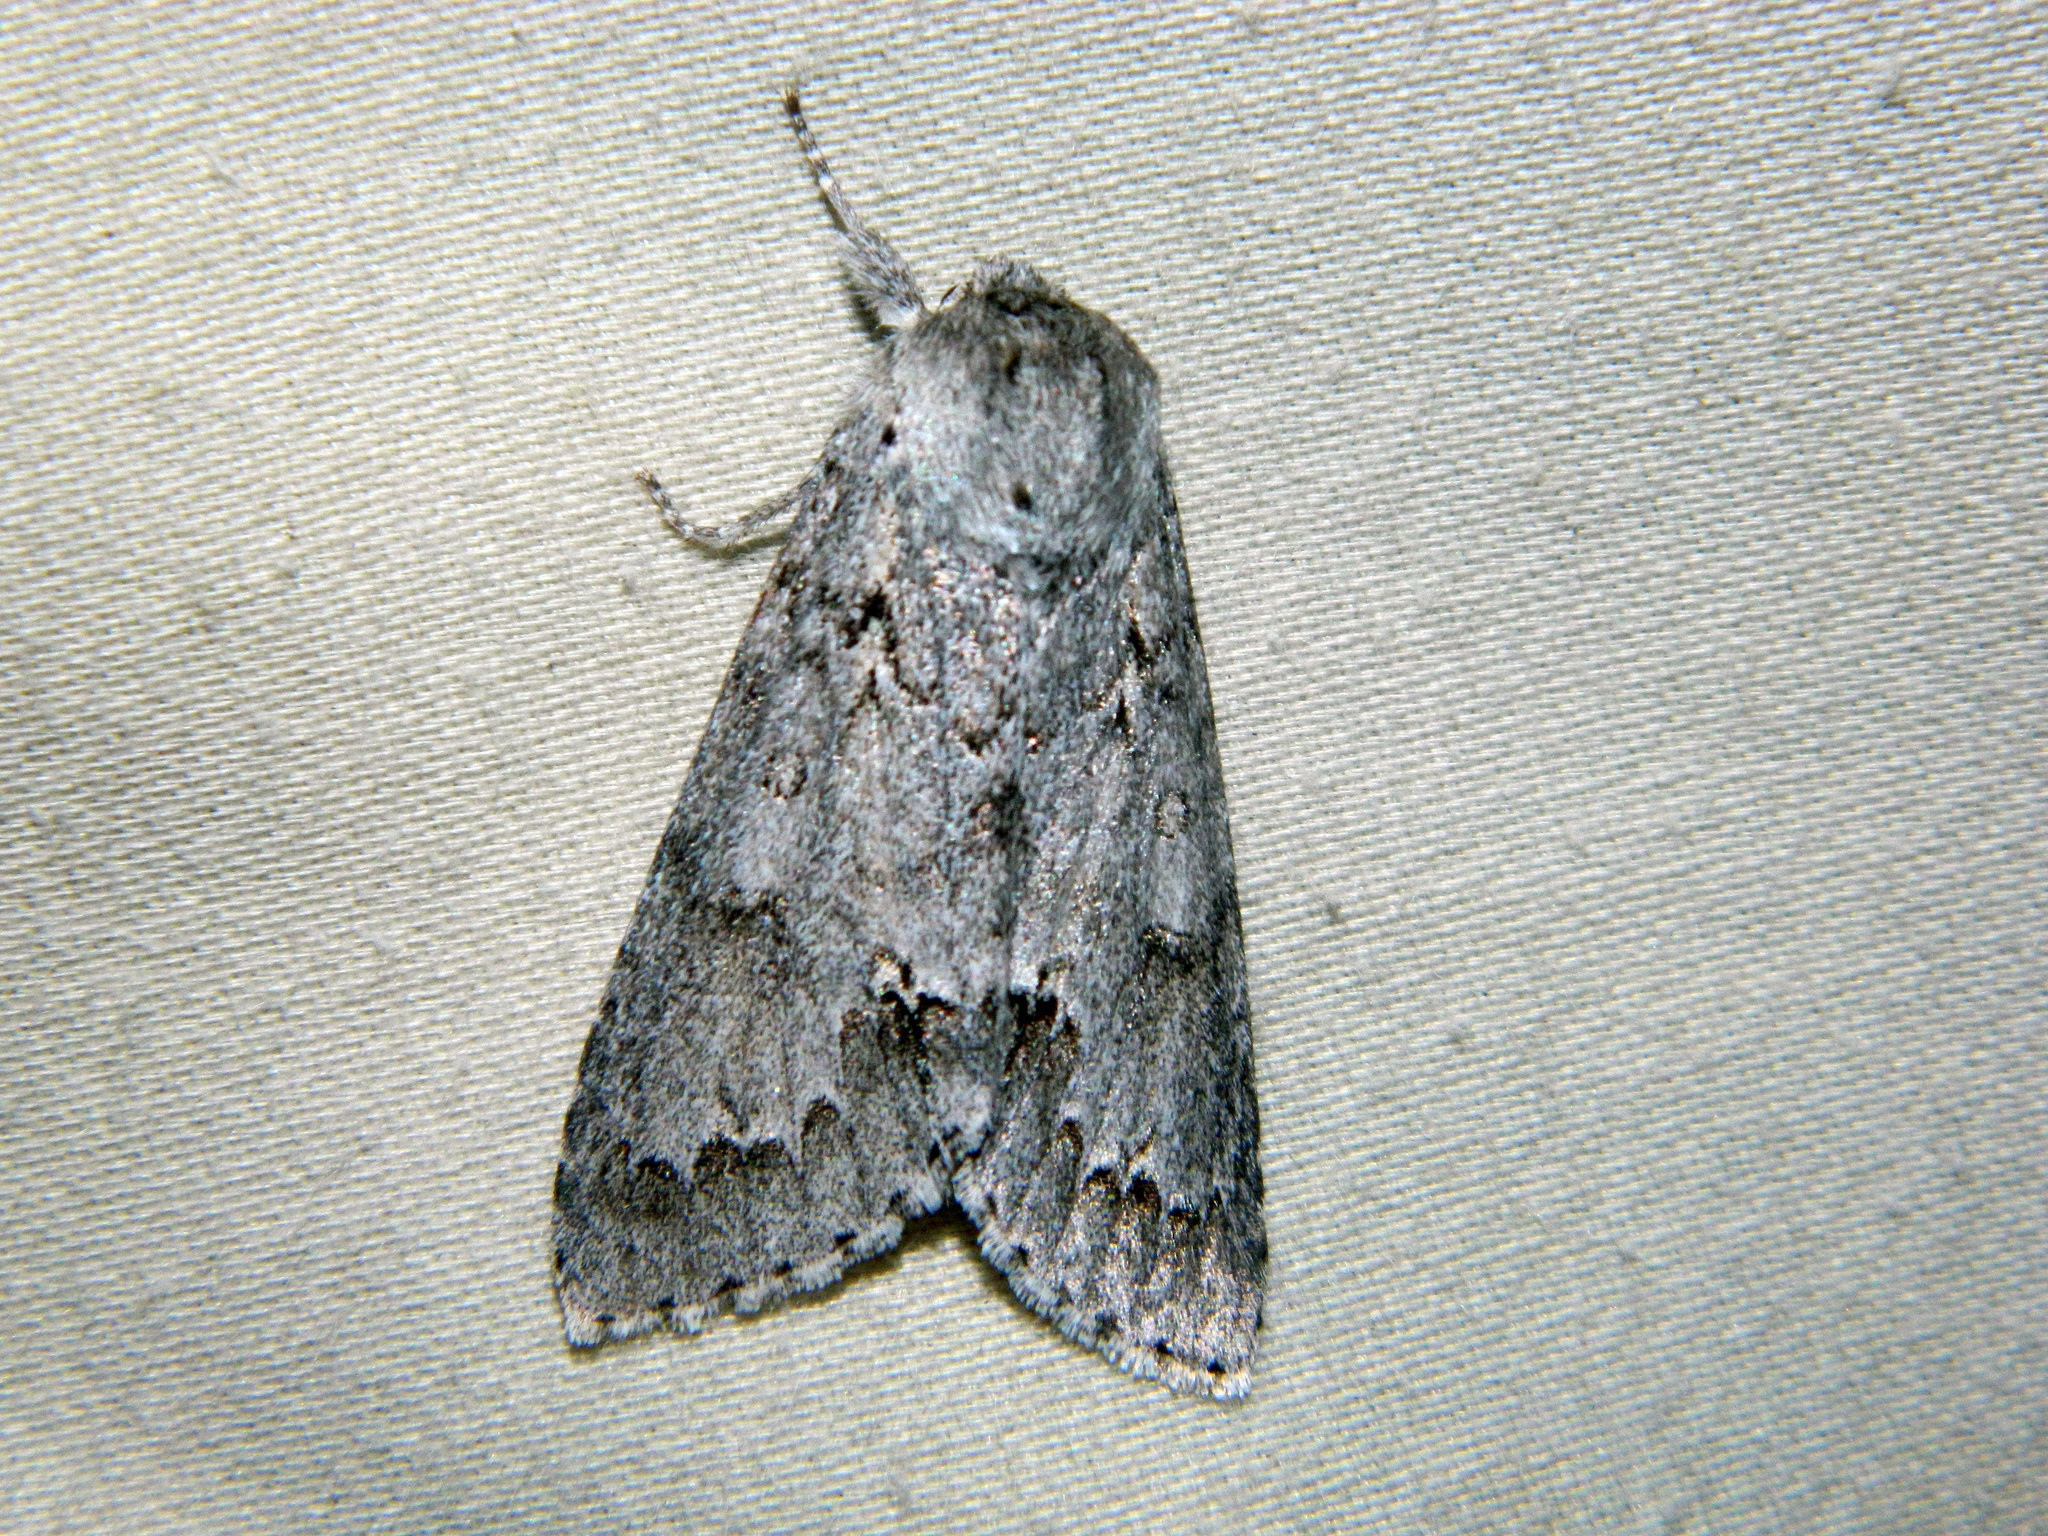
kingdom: Animalia
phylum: Arthropoda
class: Insecta
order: Lepidoptera
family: Noctuidae
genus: Acronicta
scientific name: Acronicta insita
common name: Large gray dagger
